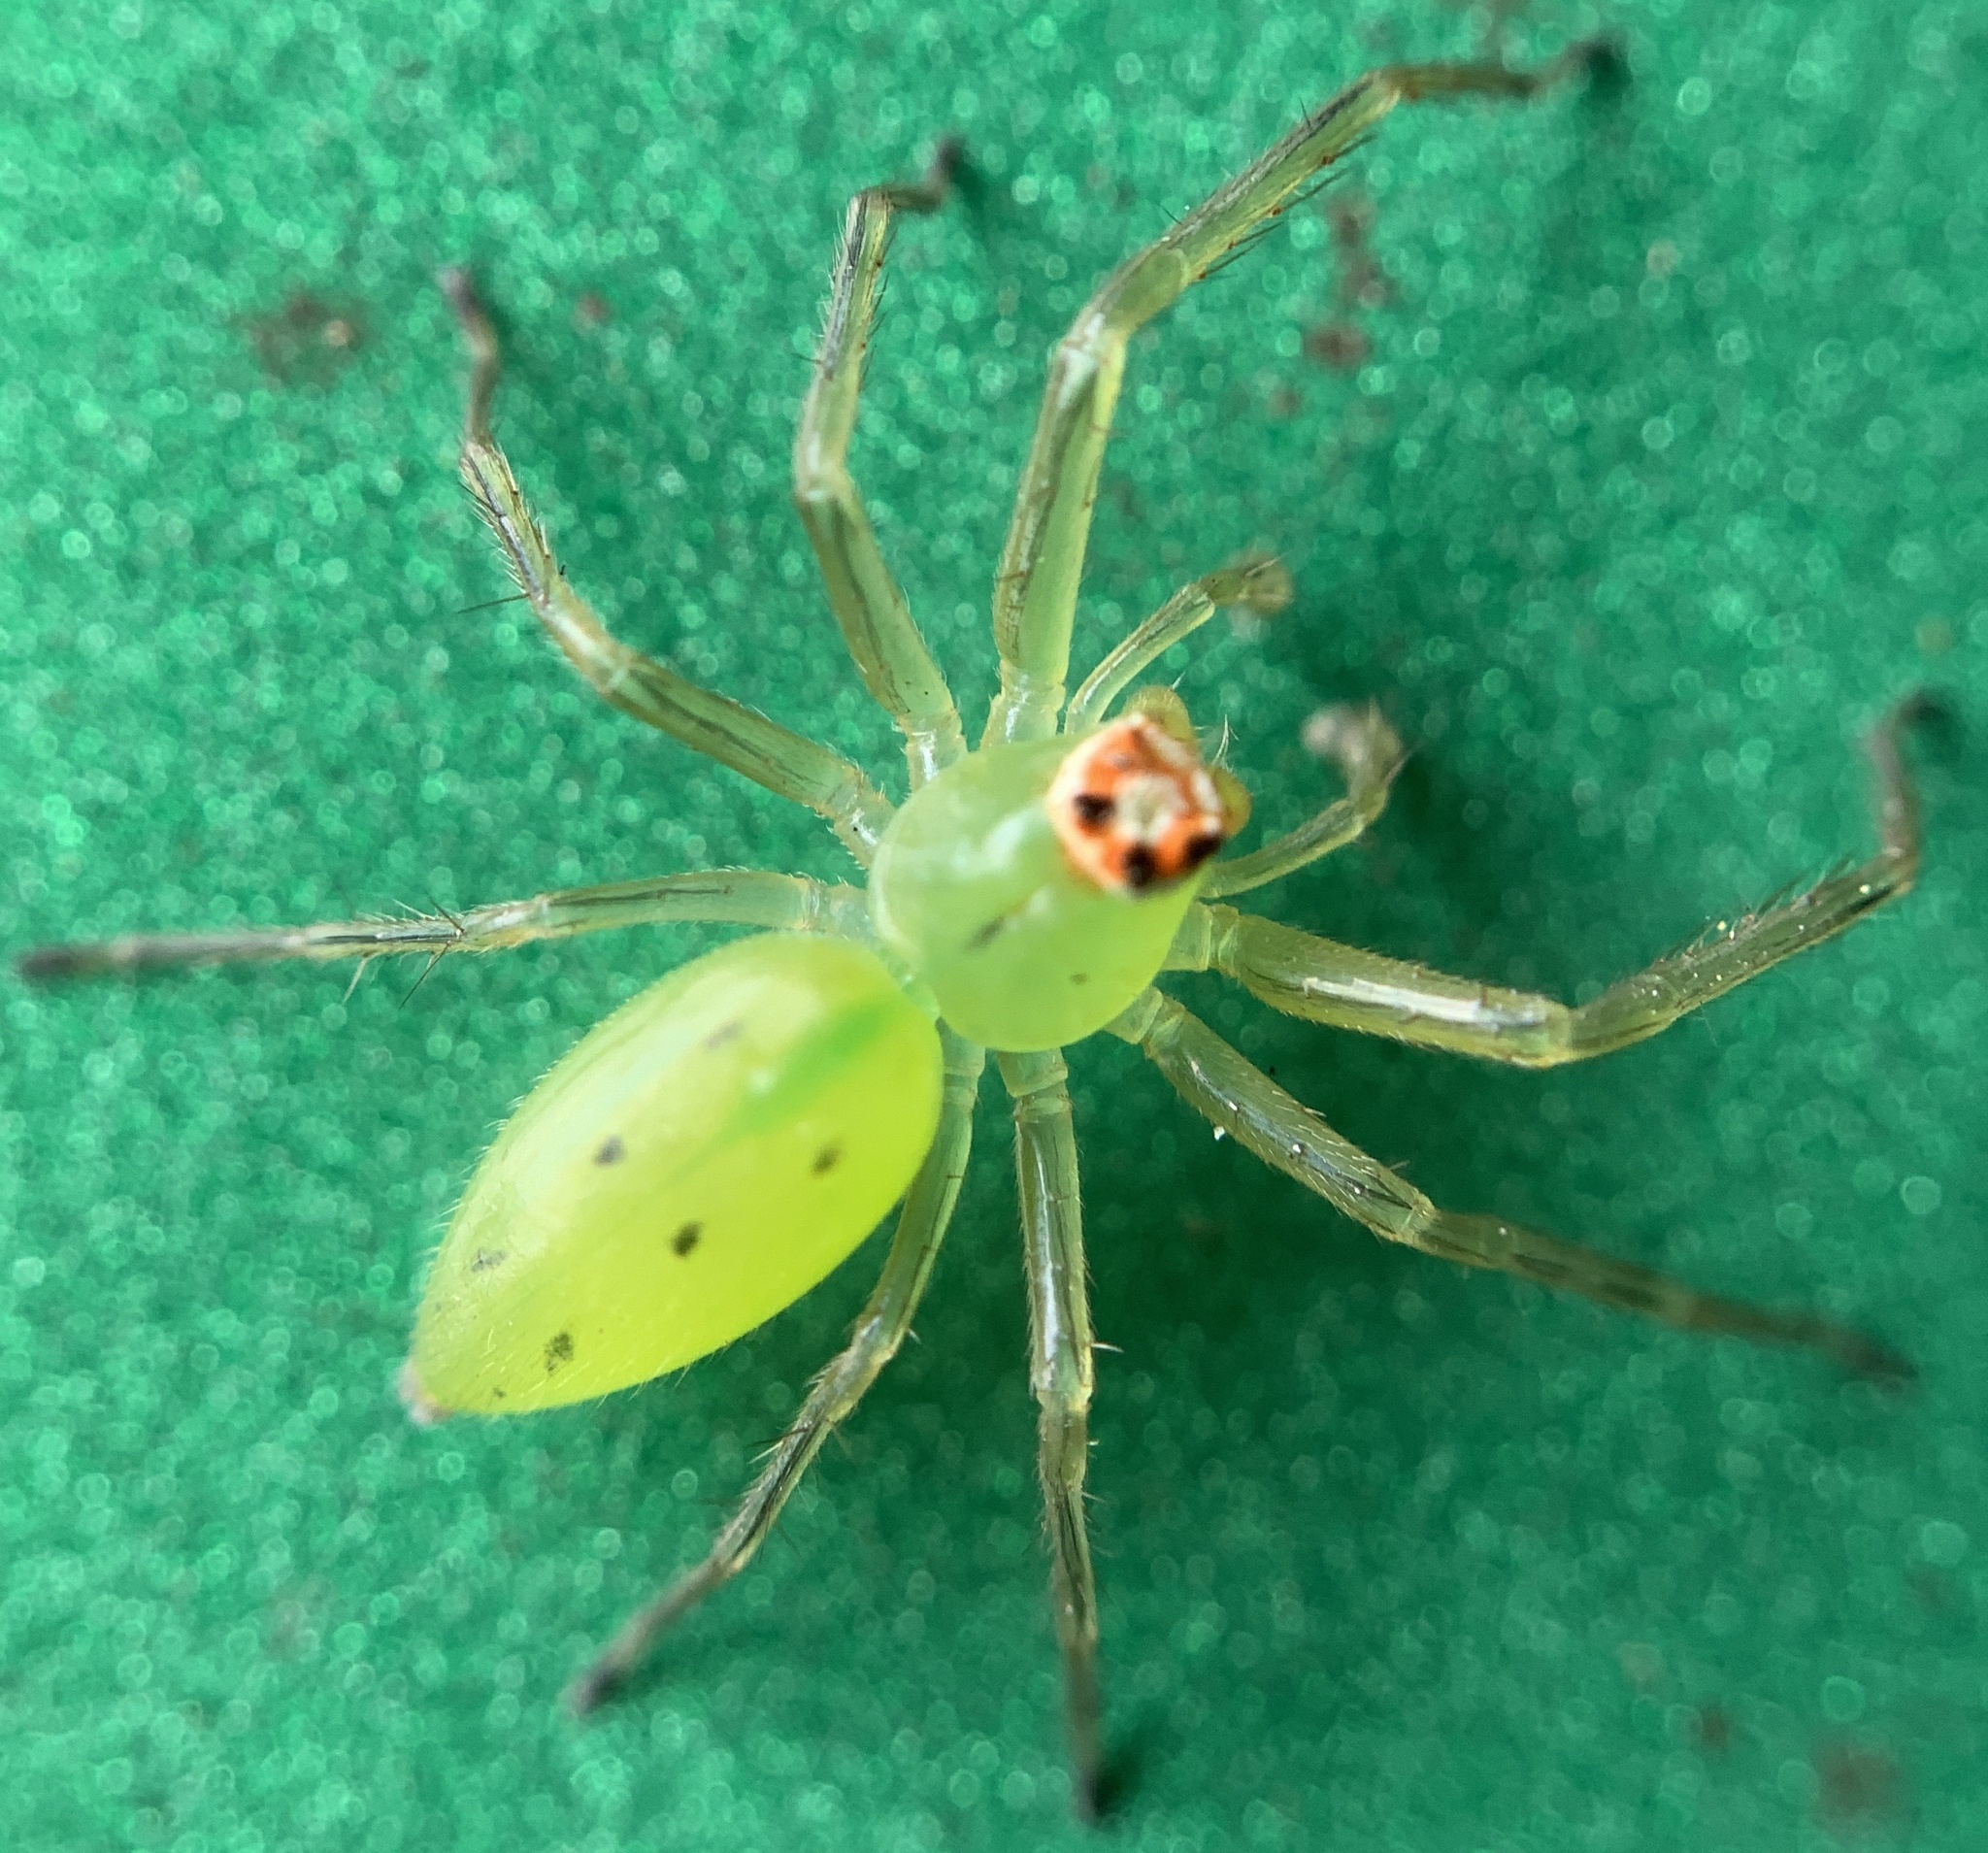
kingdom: Animalia
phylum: Arthropoda
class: Arachnida
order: Araneae
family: Salticidae
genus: Lyssomanes
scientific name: Lyssomanes viridis
